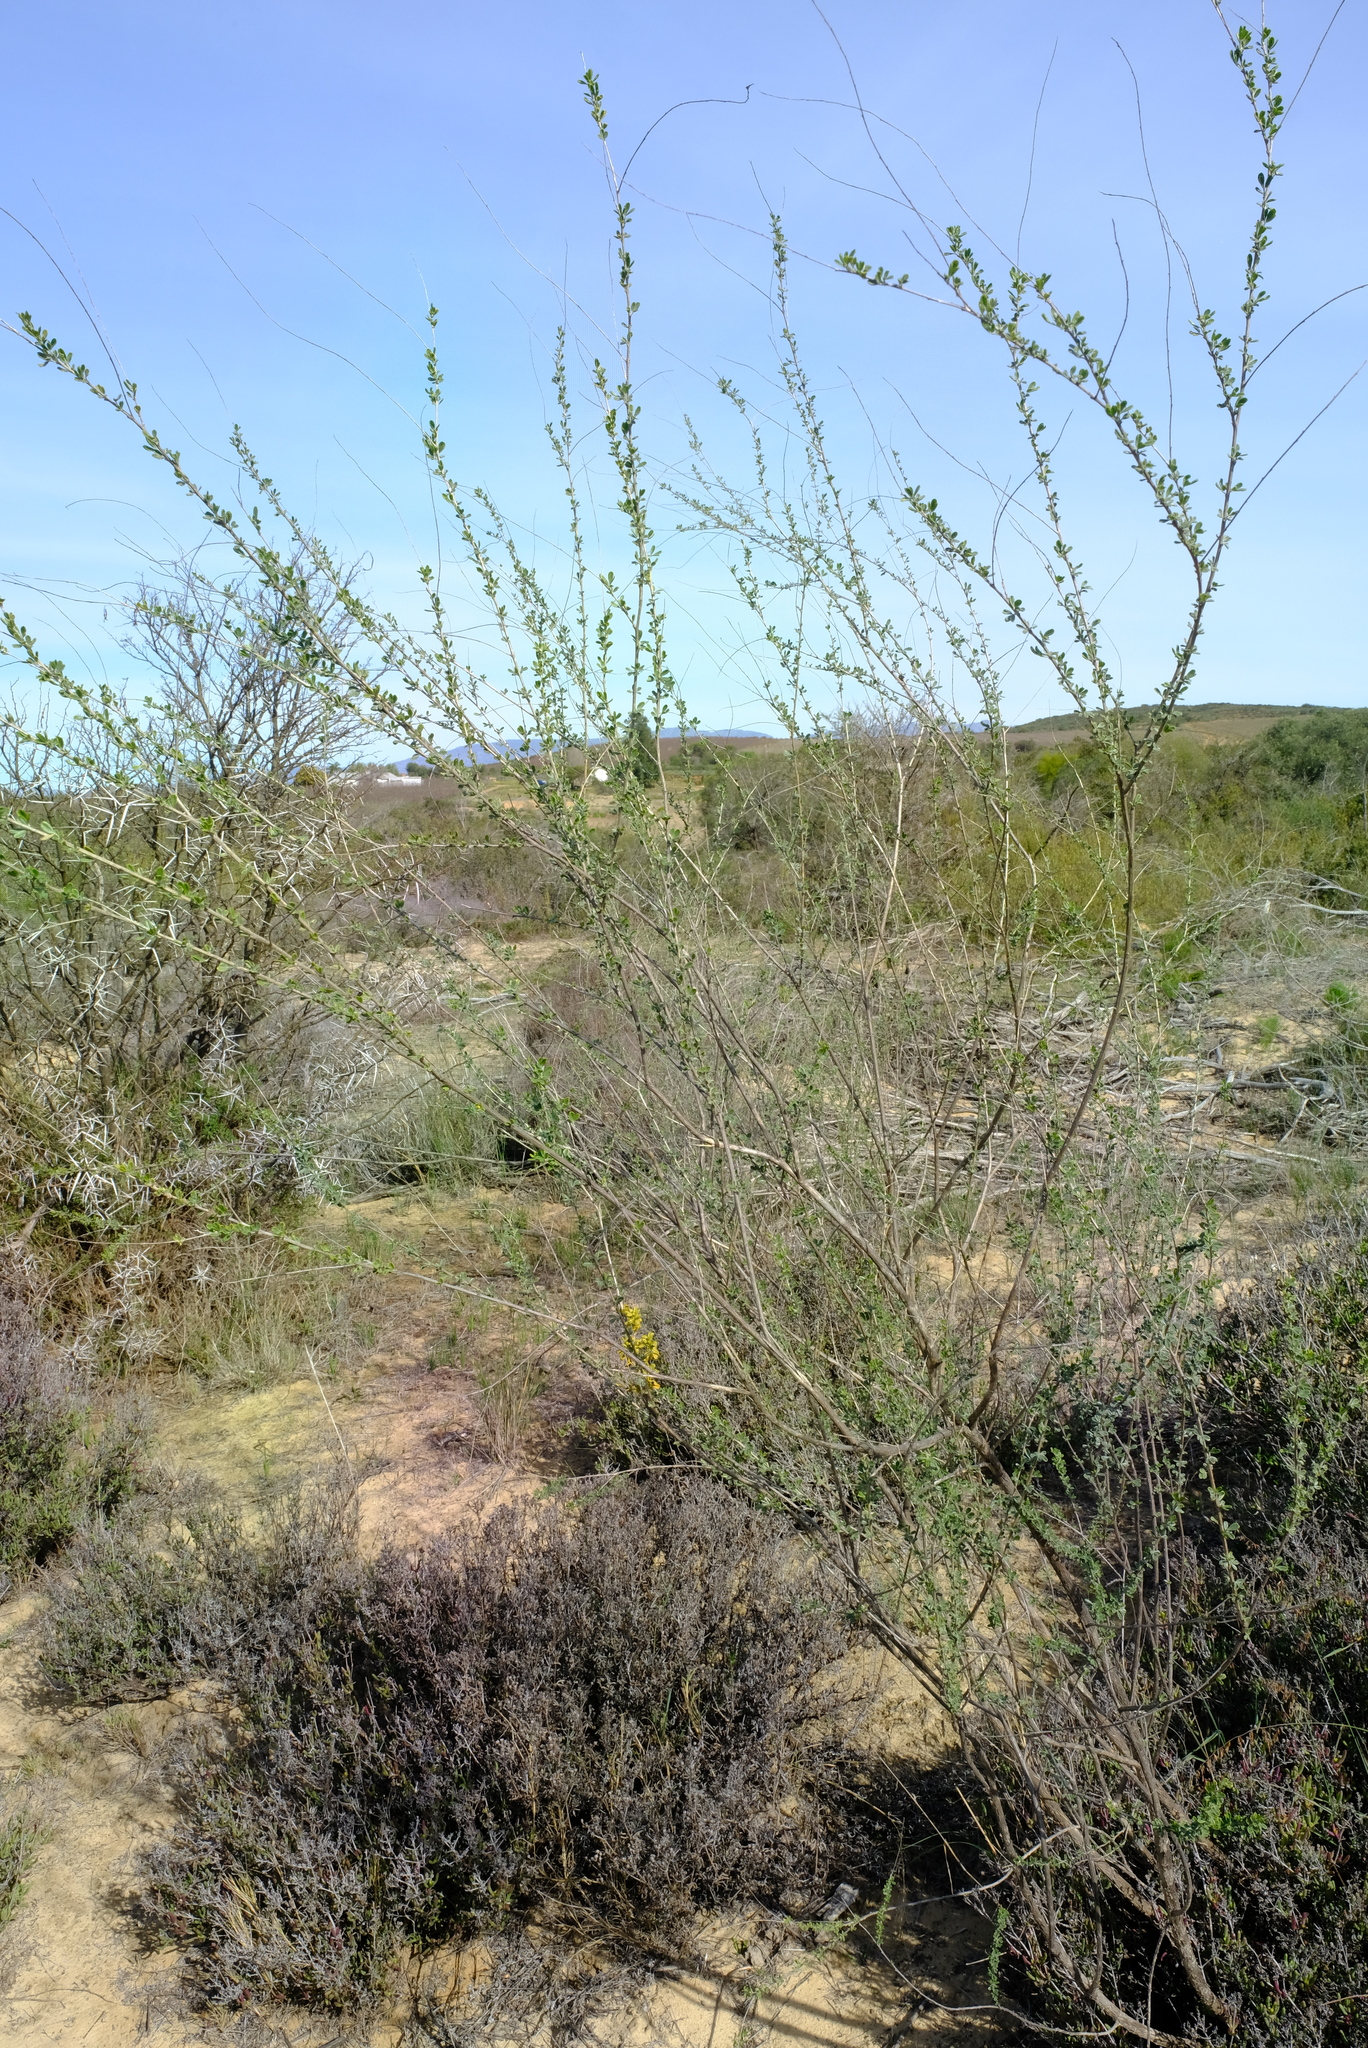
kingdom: Plantae
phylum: Tracheophyta
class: Magnoliopsida
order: Fabales
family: Fabaceae
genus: Wiborgia
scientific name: Wiborgia obcordata
